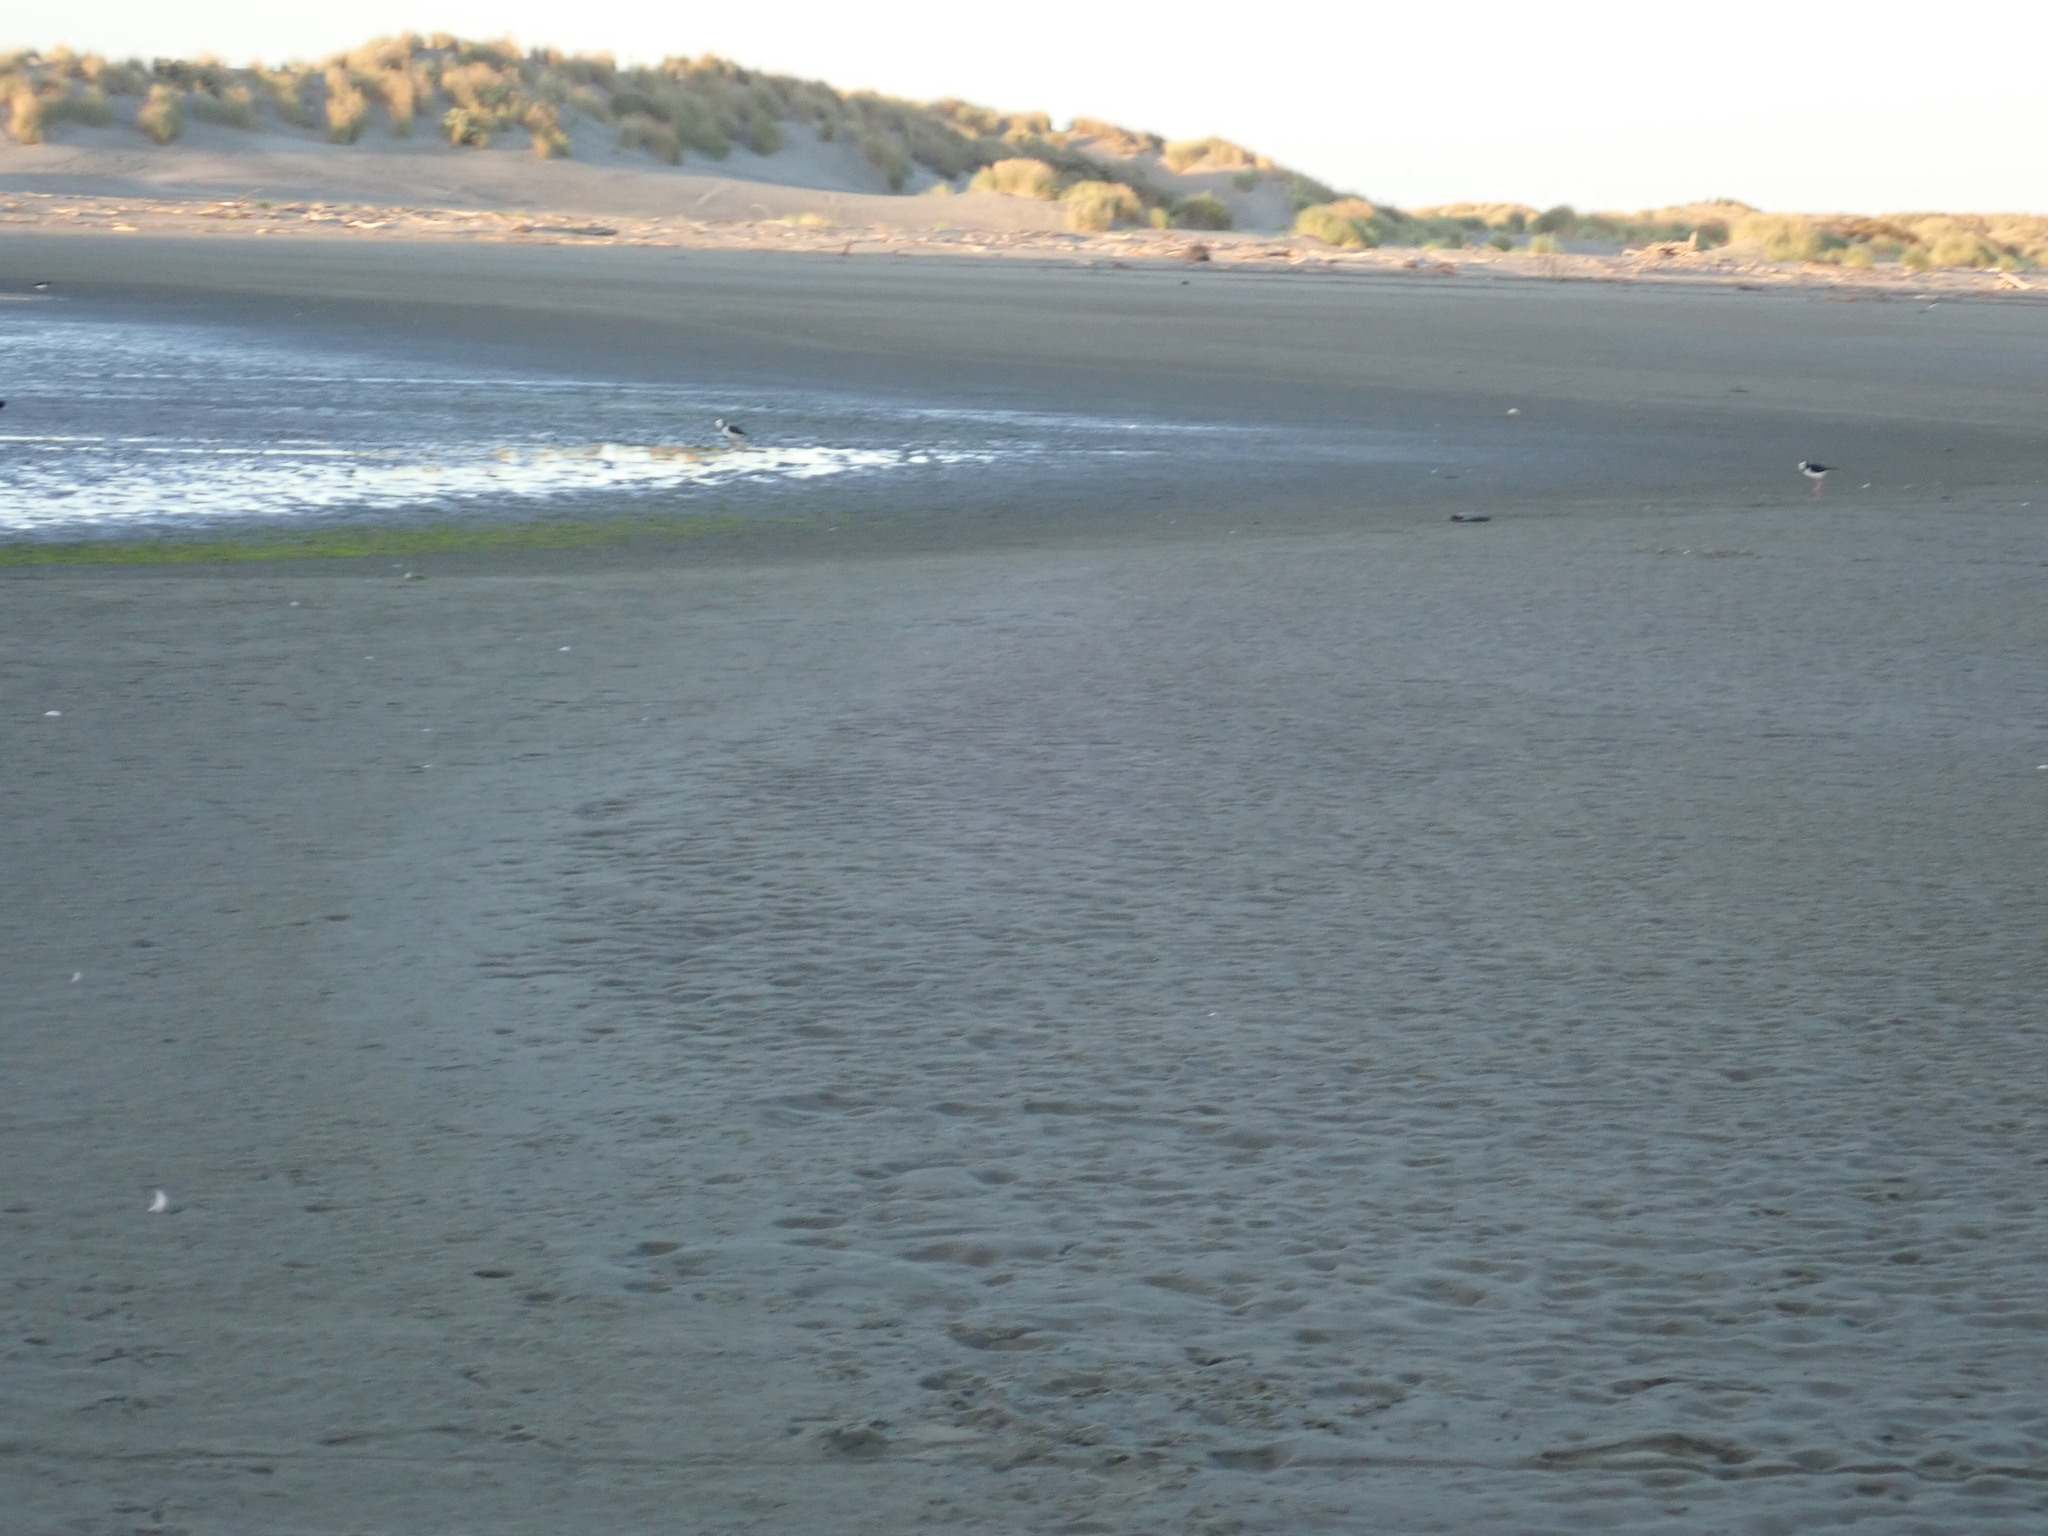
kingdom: Animalia
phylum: Chordata
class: Aves
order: Charadriiformes
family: Recurvirostridae
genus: Himantopus
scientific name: Himantopus leucocephalus
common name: White-headed stilt
